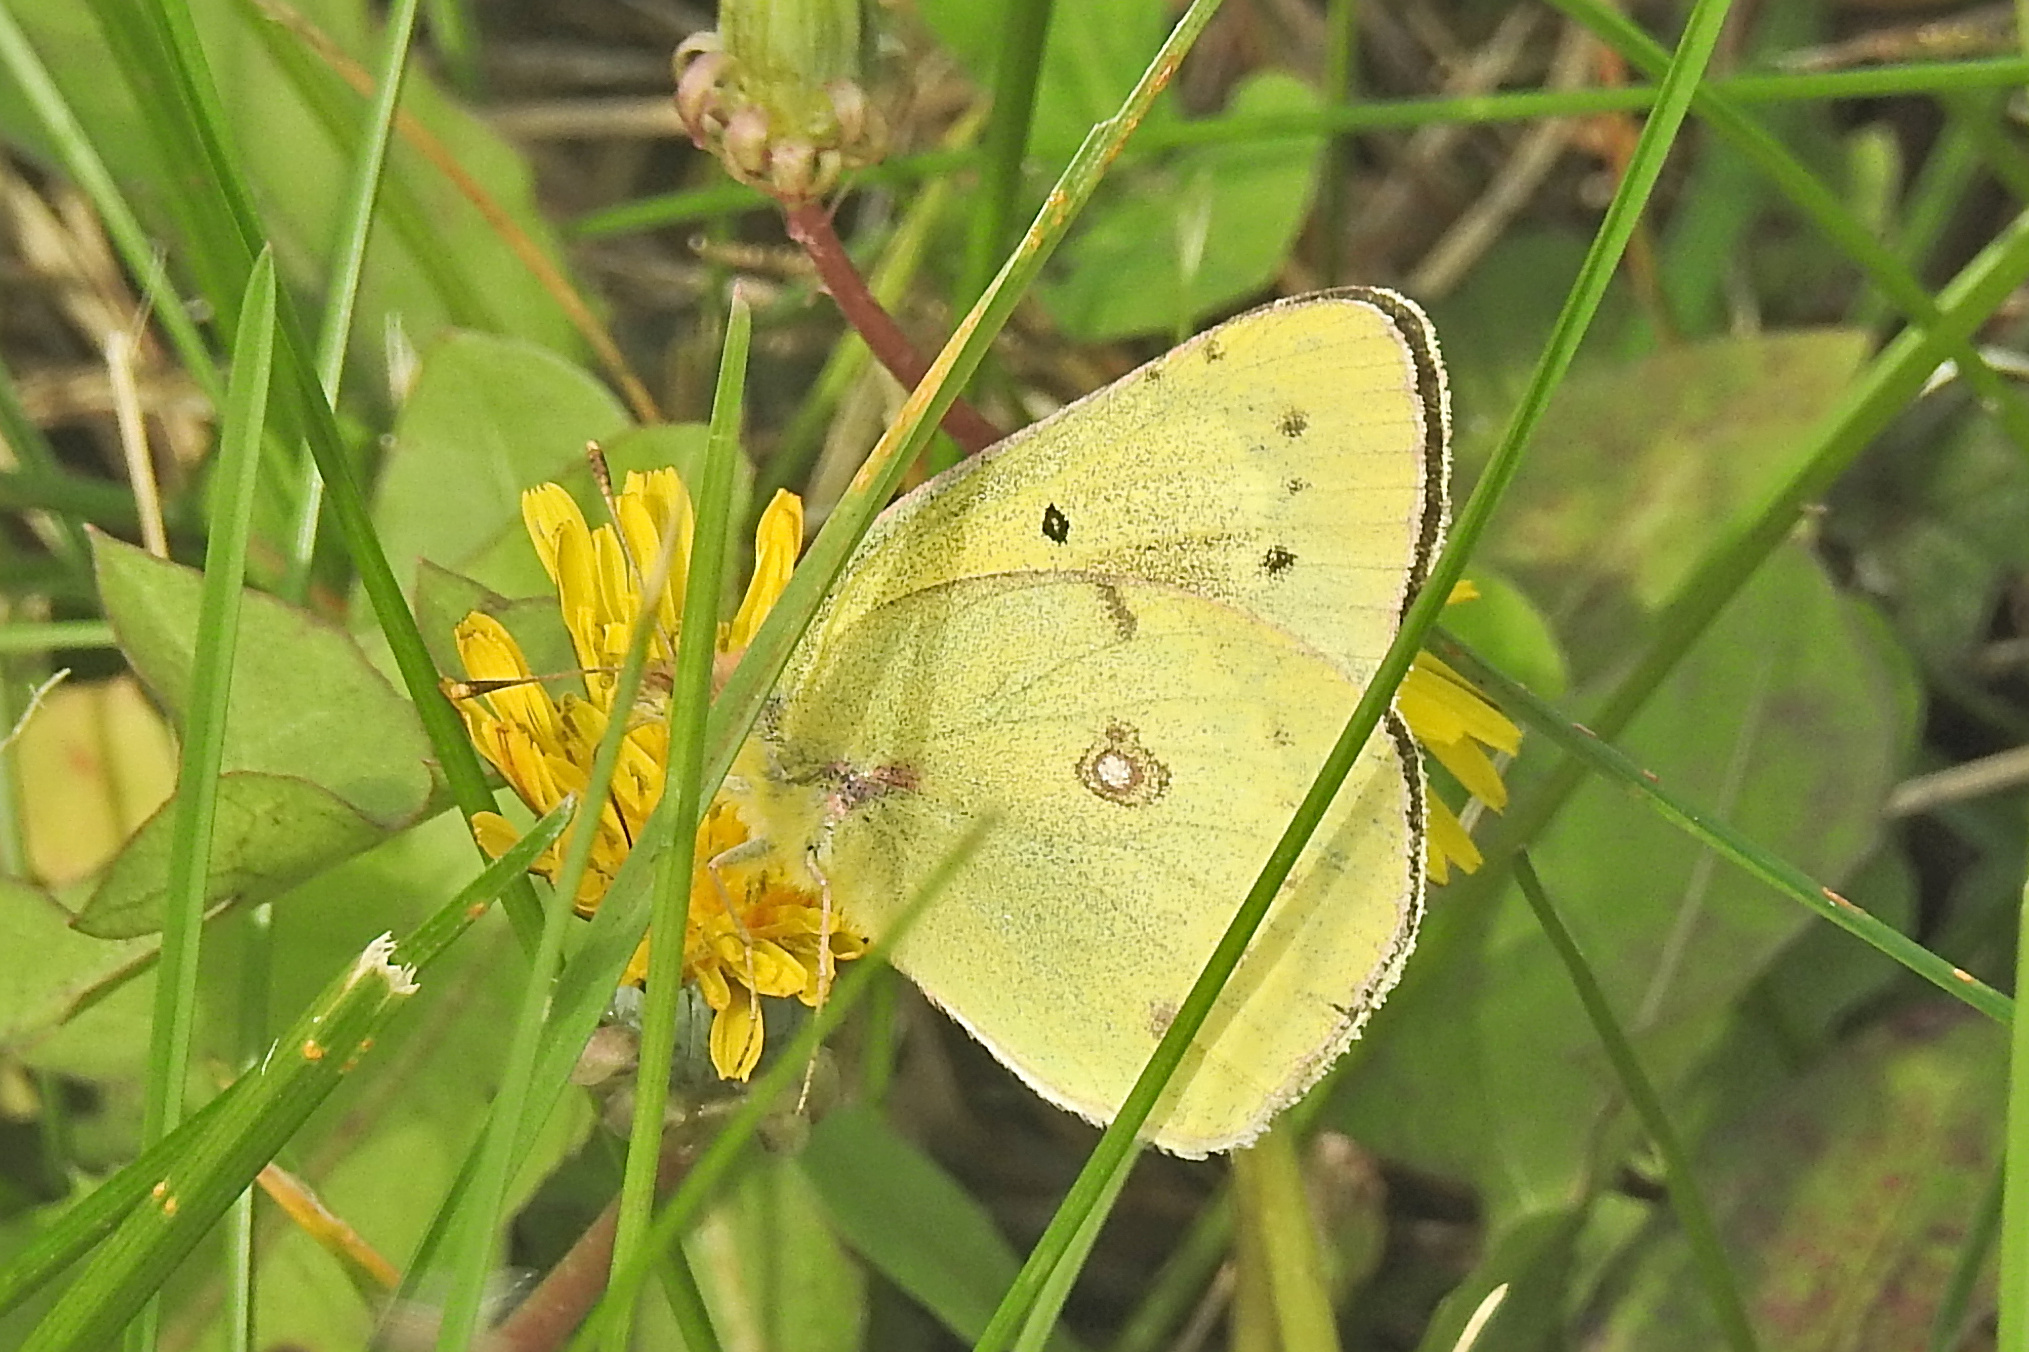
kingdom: Animalia
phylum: Arthropoda
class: Insecta
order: Lepidoptera
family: Pieridae
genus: Colias
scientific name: Colias philodice
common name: Clouded sulphur
